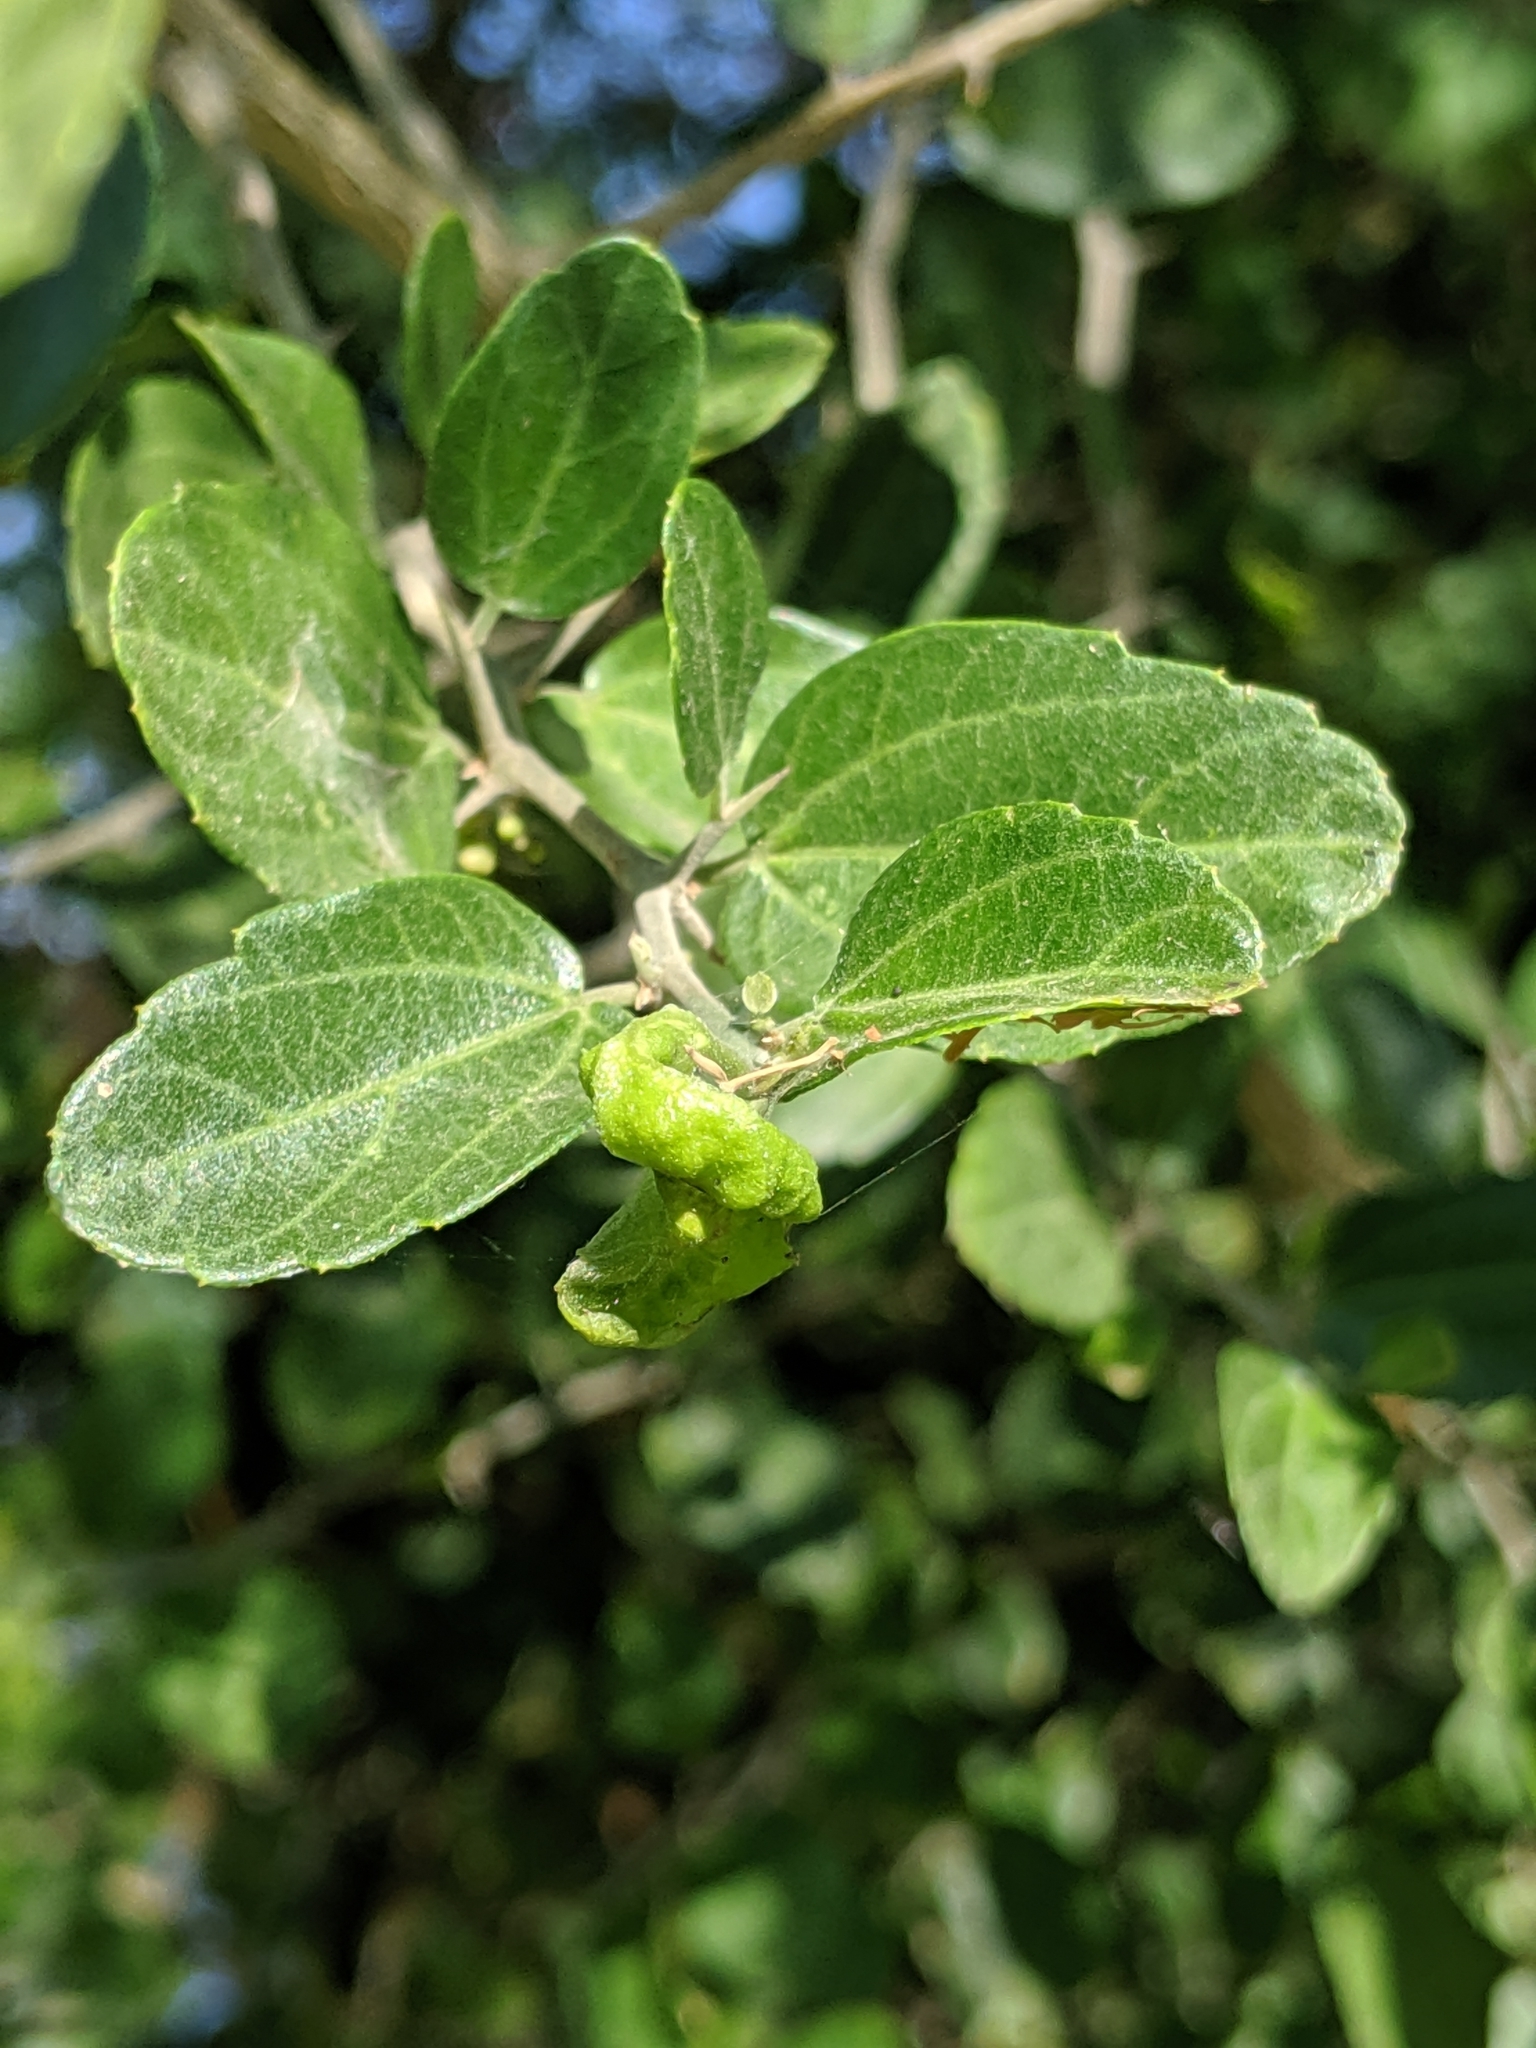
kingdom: Plantae
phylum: Tracheophyta
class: Magnoliopsida
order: Rosales
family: Cannabaceae
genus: Celtis
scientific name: Celtis pallida
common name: Desert hackberry
